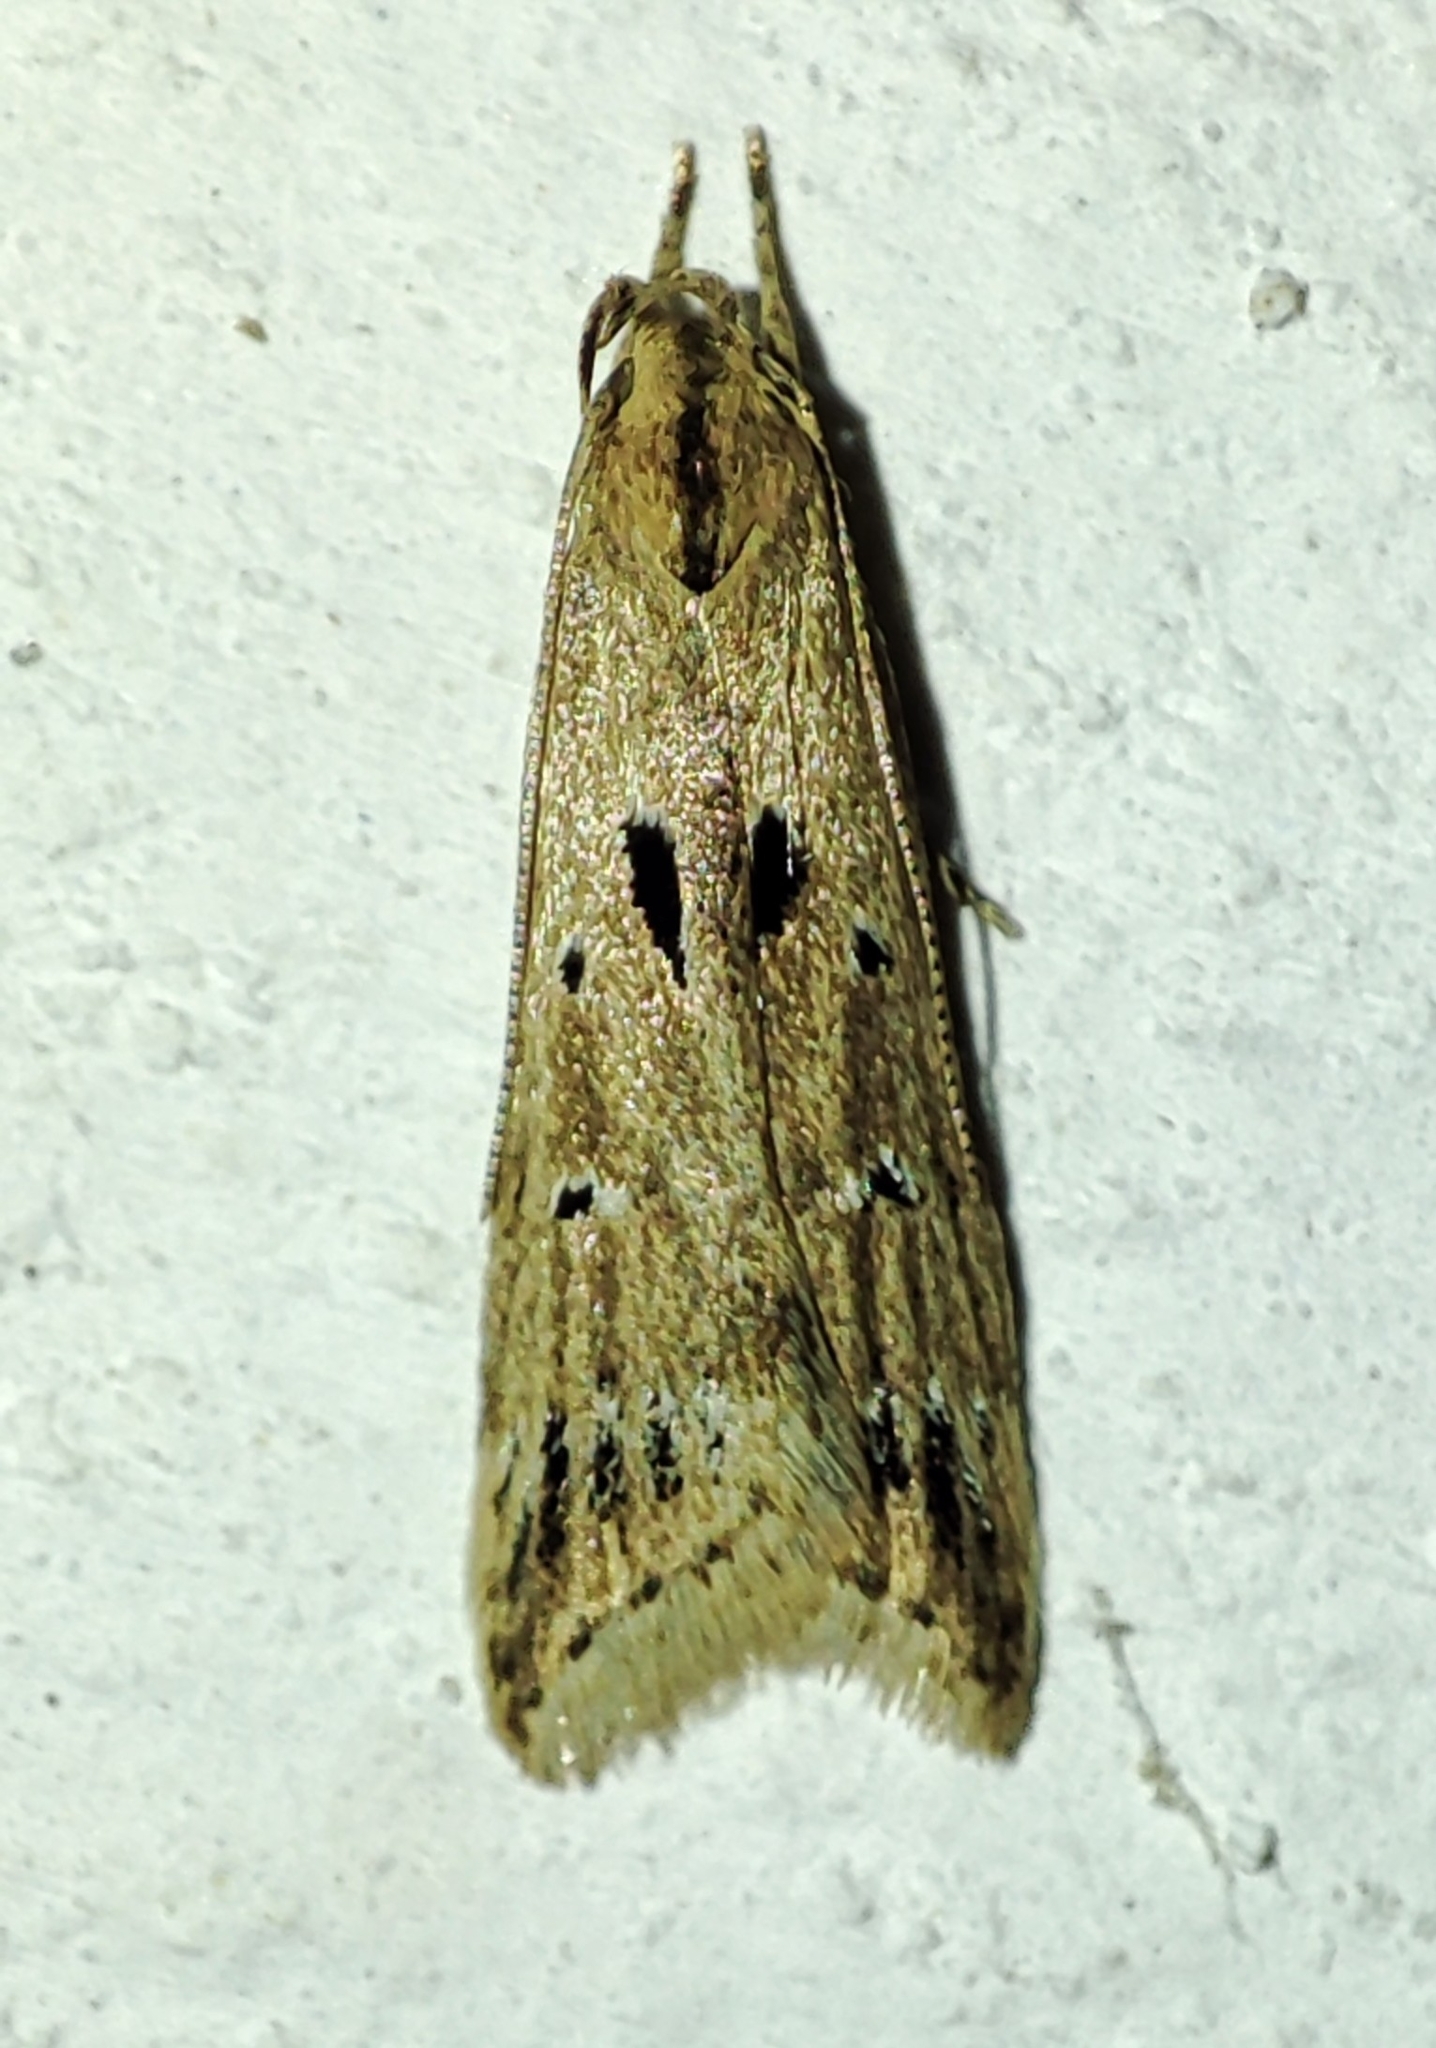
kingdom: Animalia
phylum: Arthropoda
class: Insecta
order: Lepidoptera
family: Gelechiidae
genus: Brachmia
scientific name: Brachmia inornatella
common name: Fen crest
